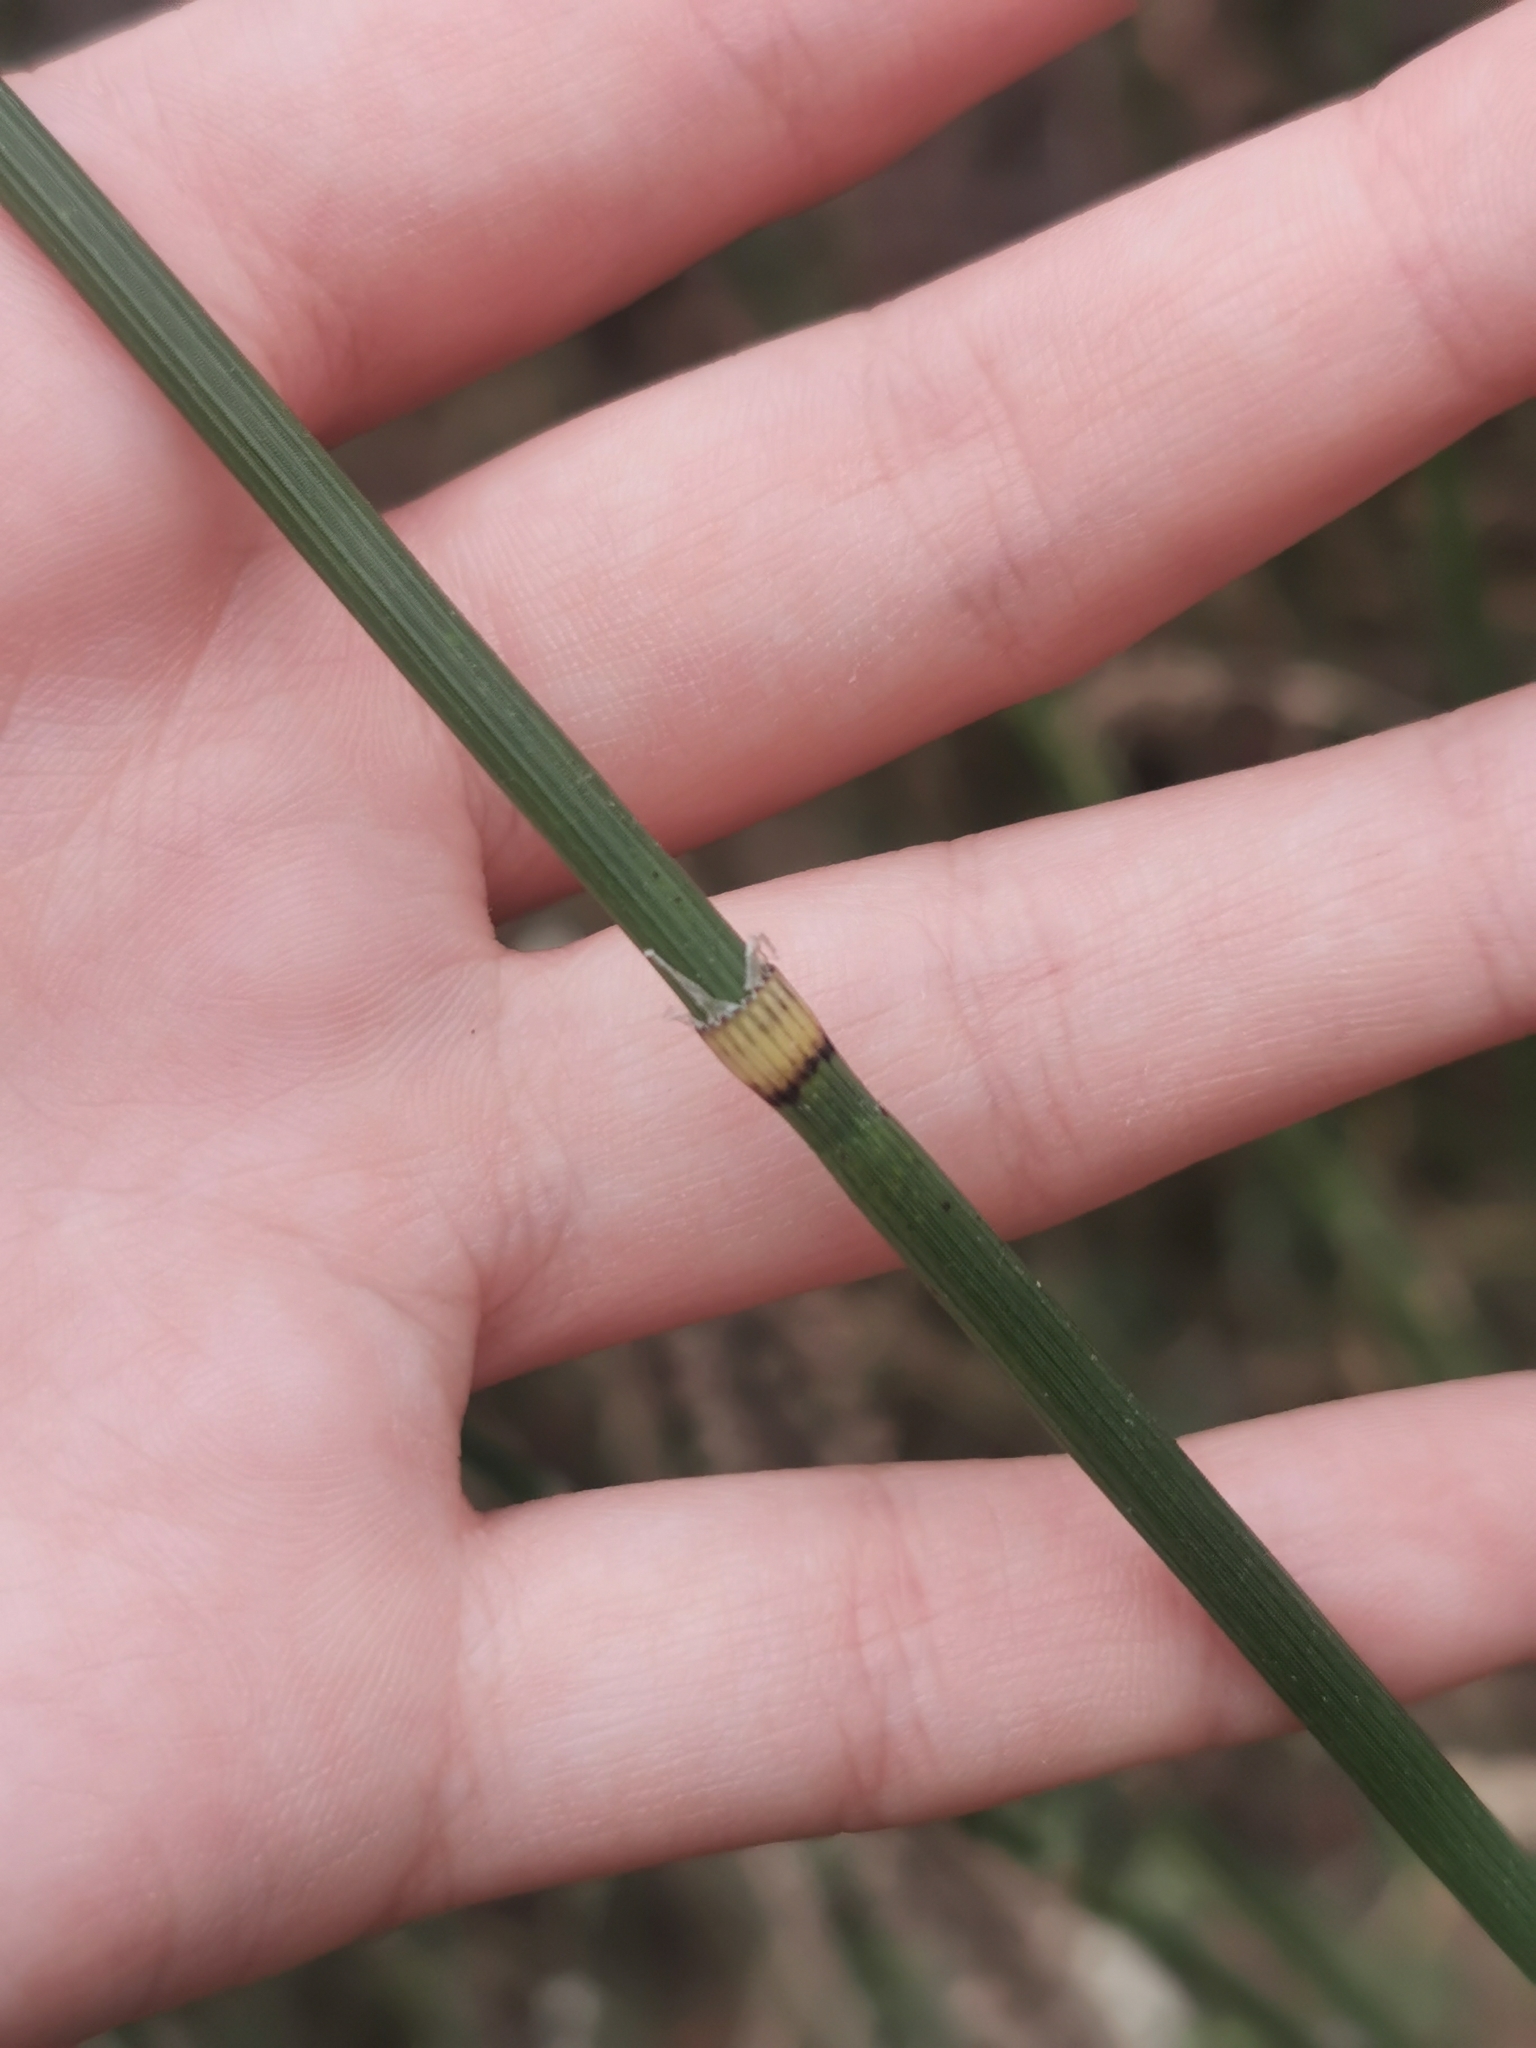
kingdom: Plantae
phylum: Tracheophyta
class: Polypodiopsida
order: Equisetales
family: Equisetaceae
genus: Equisetum
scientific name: Equisetum hyemale
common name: Rough horsetail
